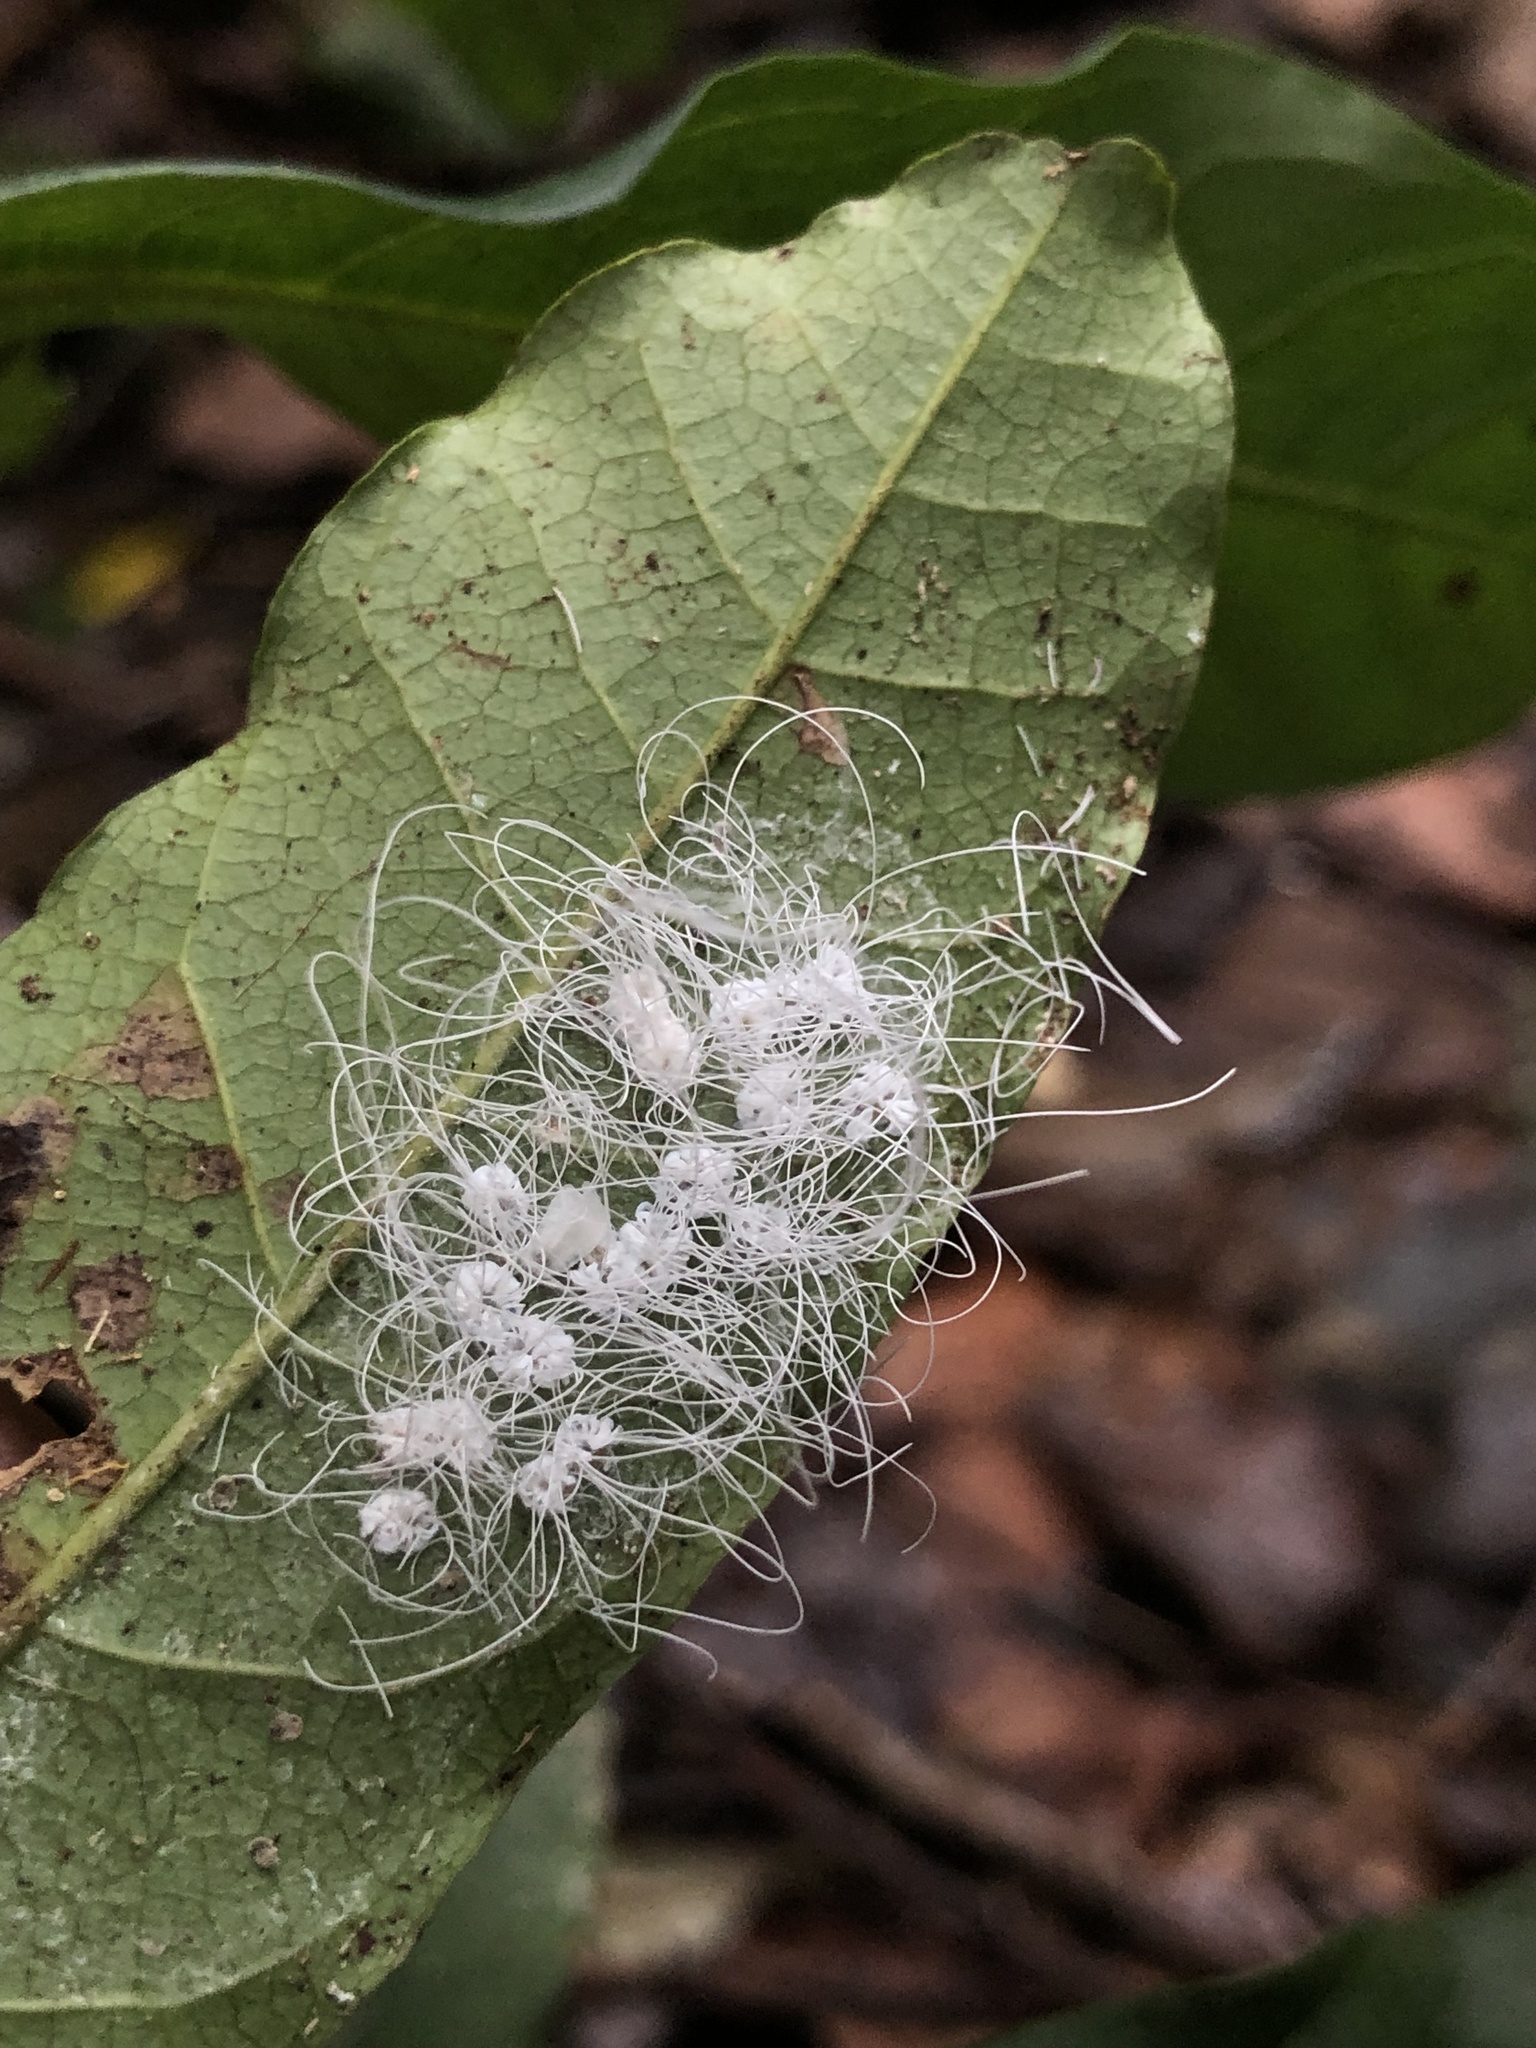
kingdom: Animalia
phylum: Arthropoda
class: Insecta
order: Hemiptera
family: Aleyrodidae
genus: Aleuroctarthrus
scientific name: Aleuroctarthrus
